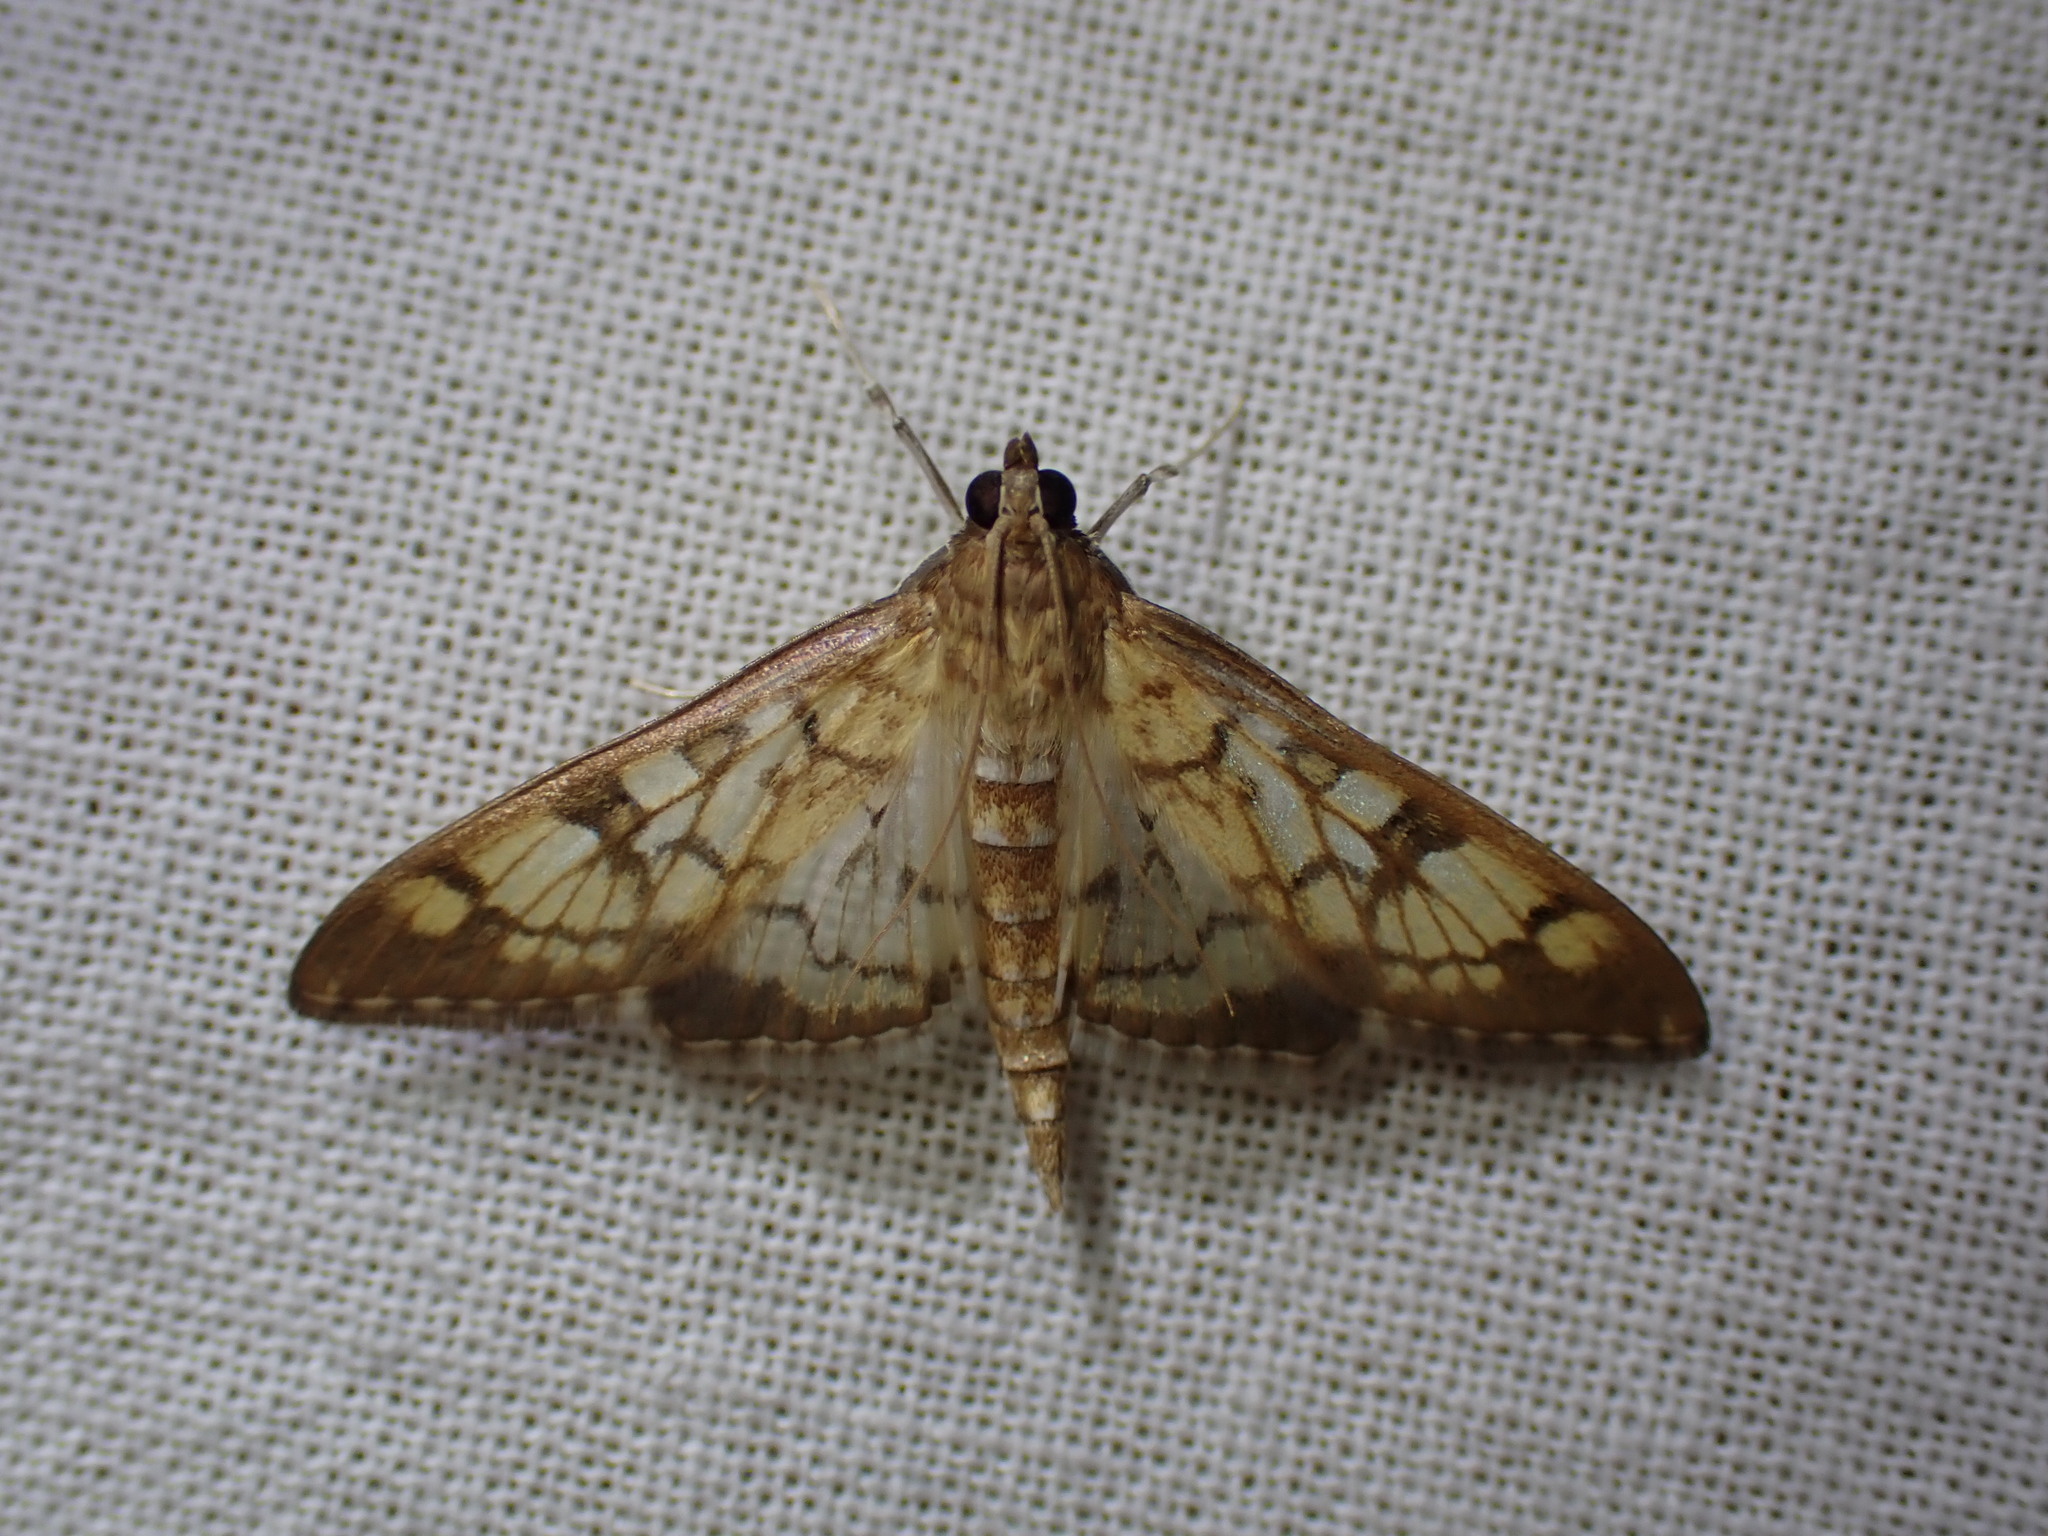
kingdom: Animalia
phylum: Arthropoda
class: Insecta
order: Lepidoptera
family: Crambidae
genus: Mimorista
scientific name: Mimorista subcostalis
